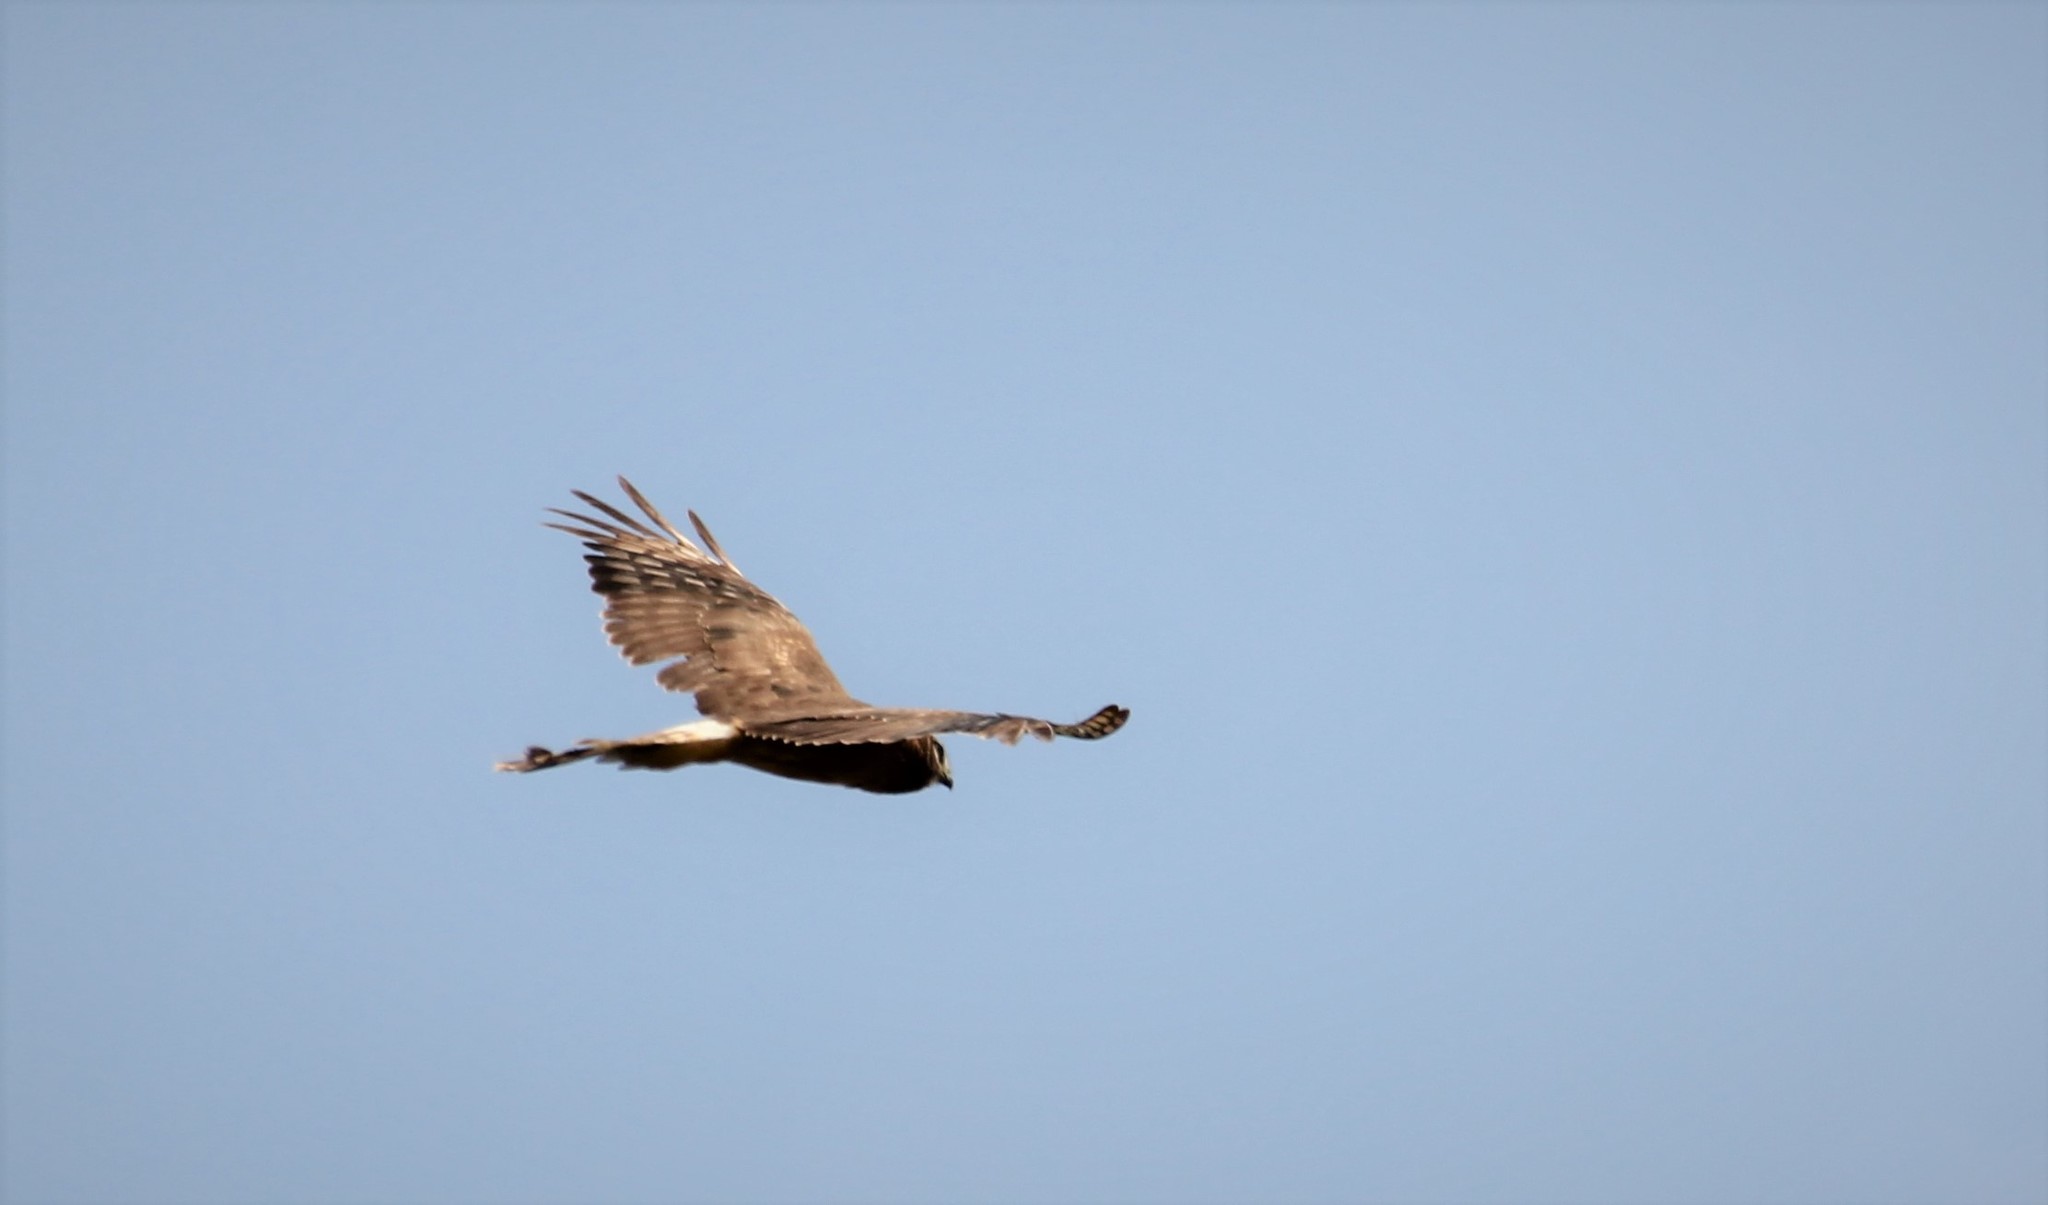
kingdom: Animalia
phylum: Chordata
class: Aves
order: Accipitriformes
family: Accipitridae
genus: Circus
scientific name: Circus cyaneus
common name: Hen harrier
